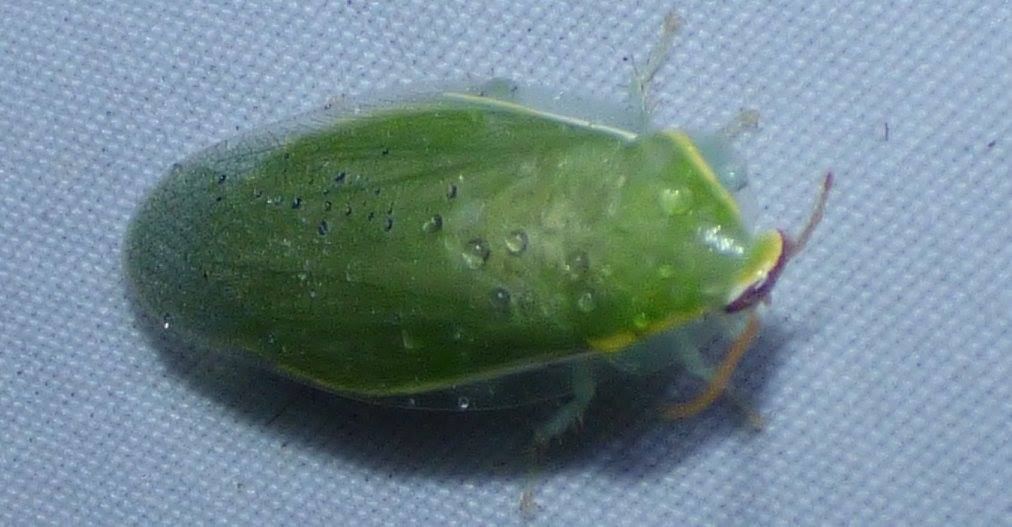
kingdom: Animalia
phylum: Arthropoda
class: Insecta
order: Blattodea
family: Blaberidae
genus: Panchlora
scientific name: Panchlora nivea
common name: Cuban cockroach
